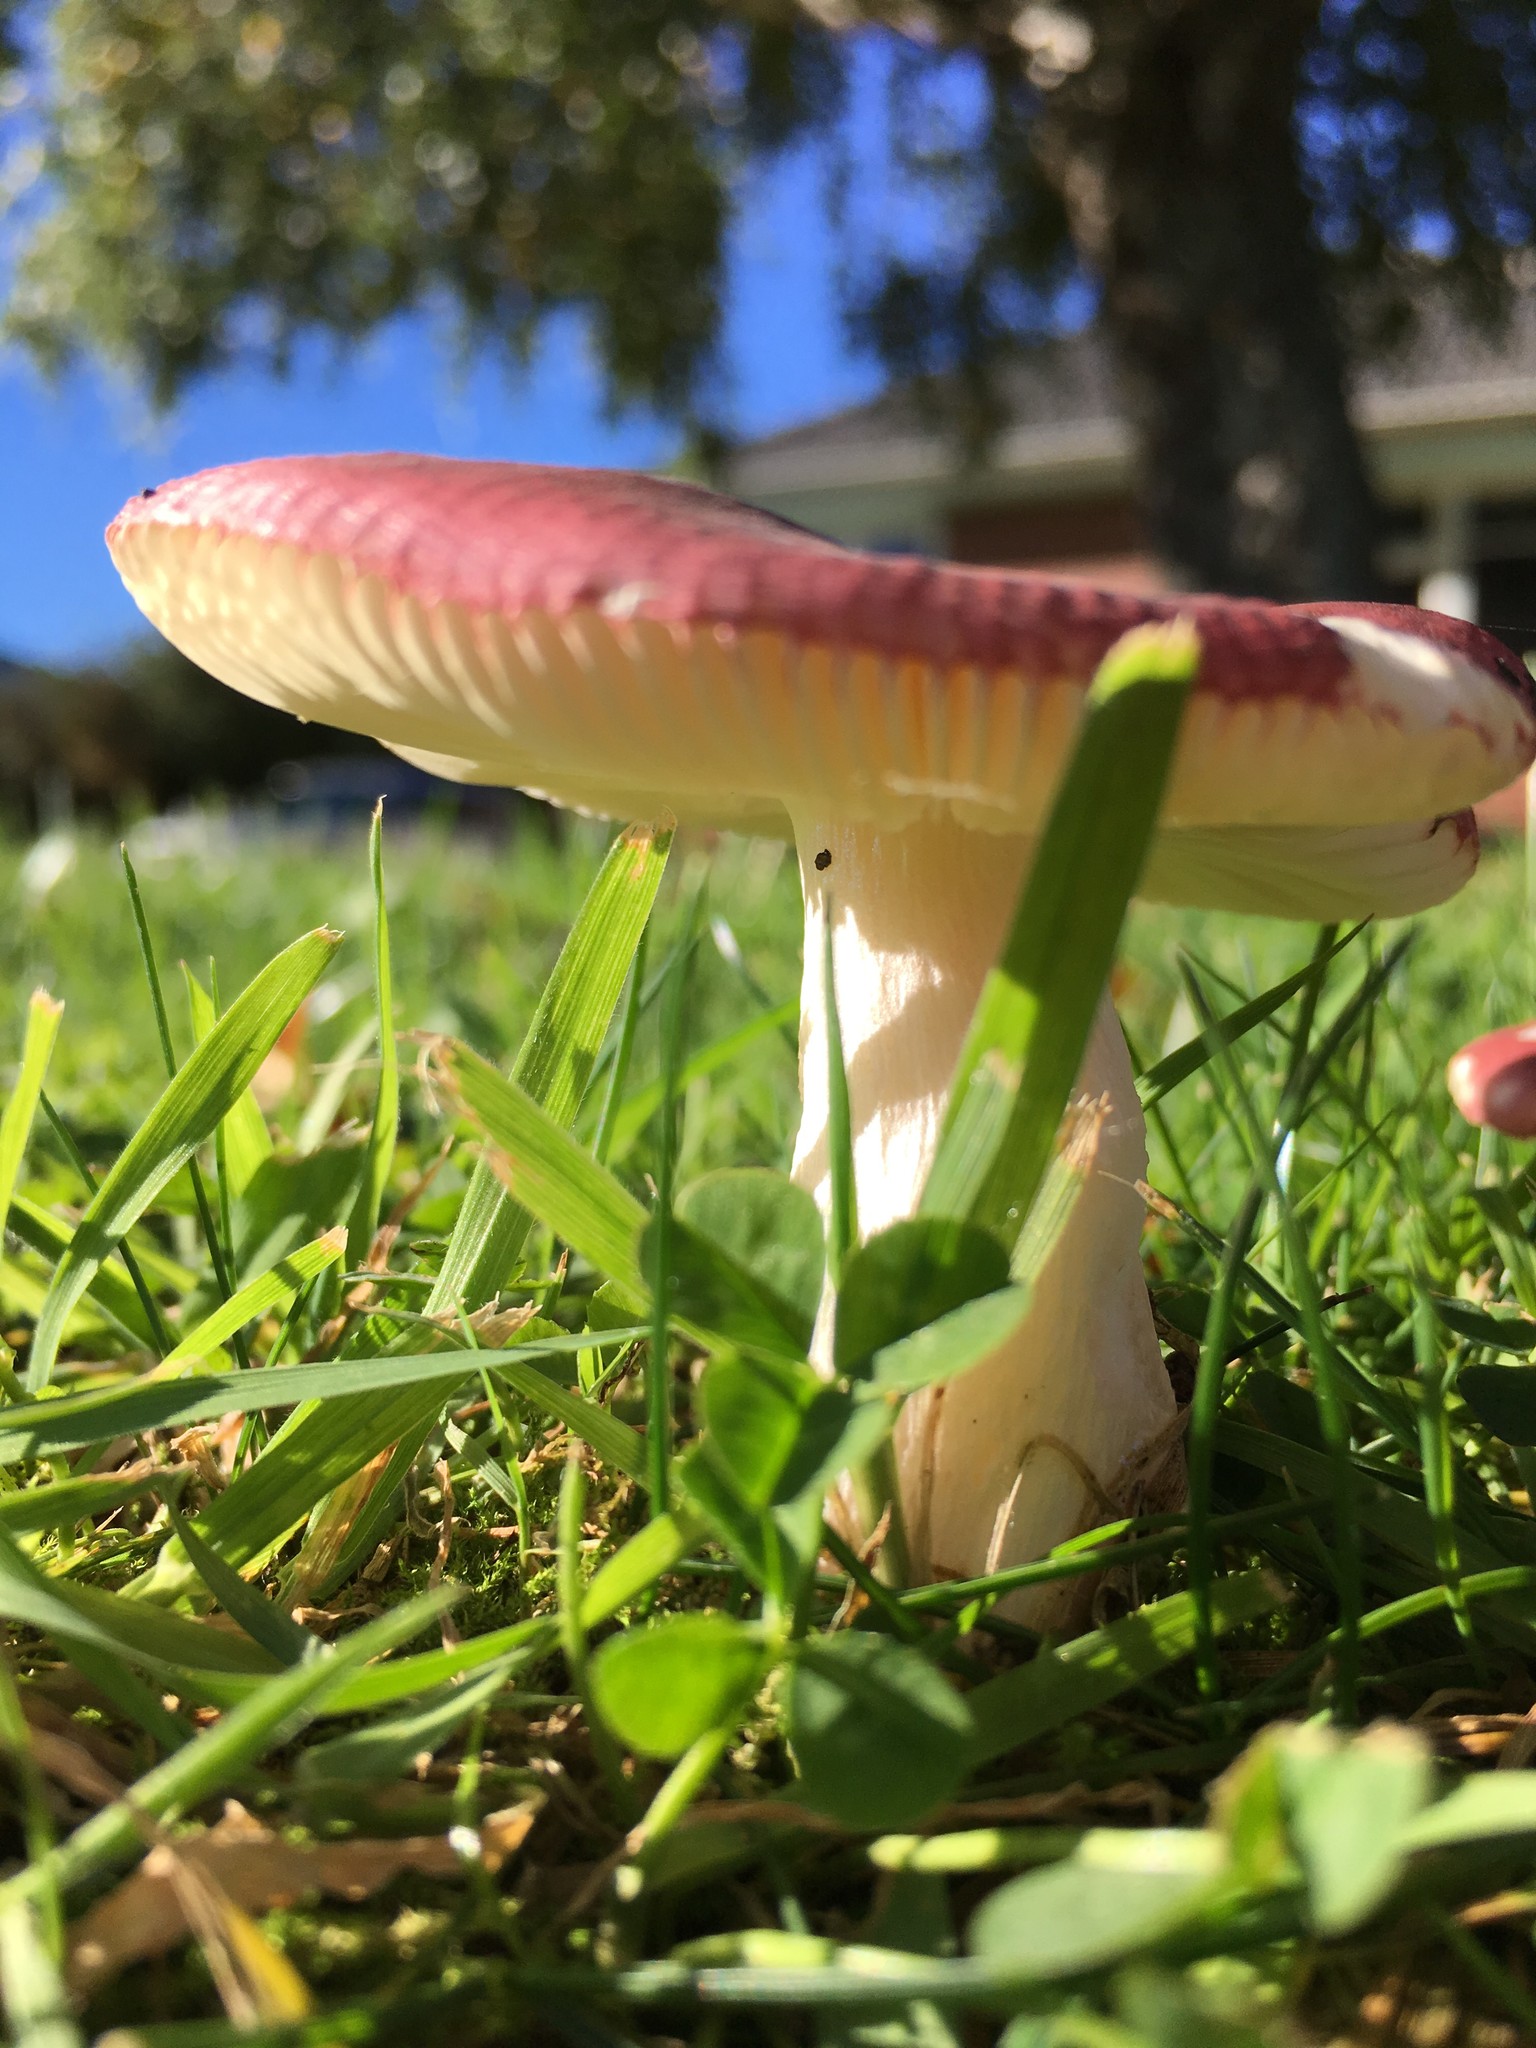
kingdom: Fungi
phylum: Basidiomycota
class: Agaricomycetes
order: Russulales
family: Russulaceae
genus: Russula
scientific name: Russula nitida
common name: Purple swamp brittlegill
